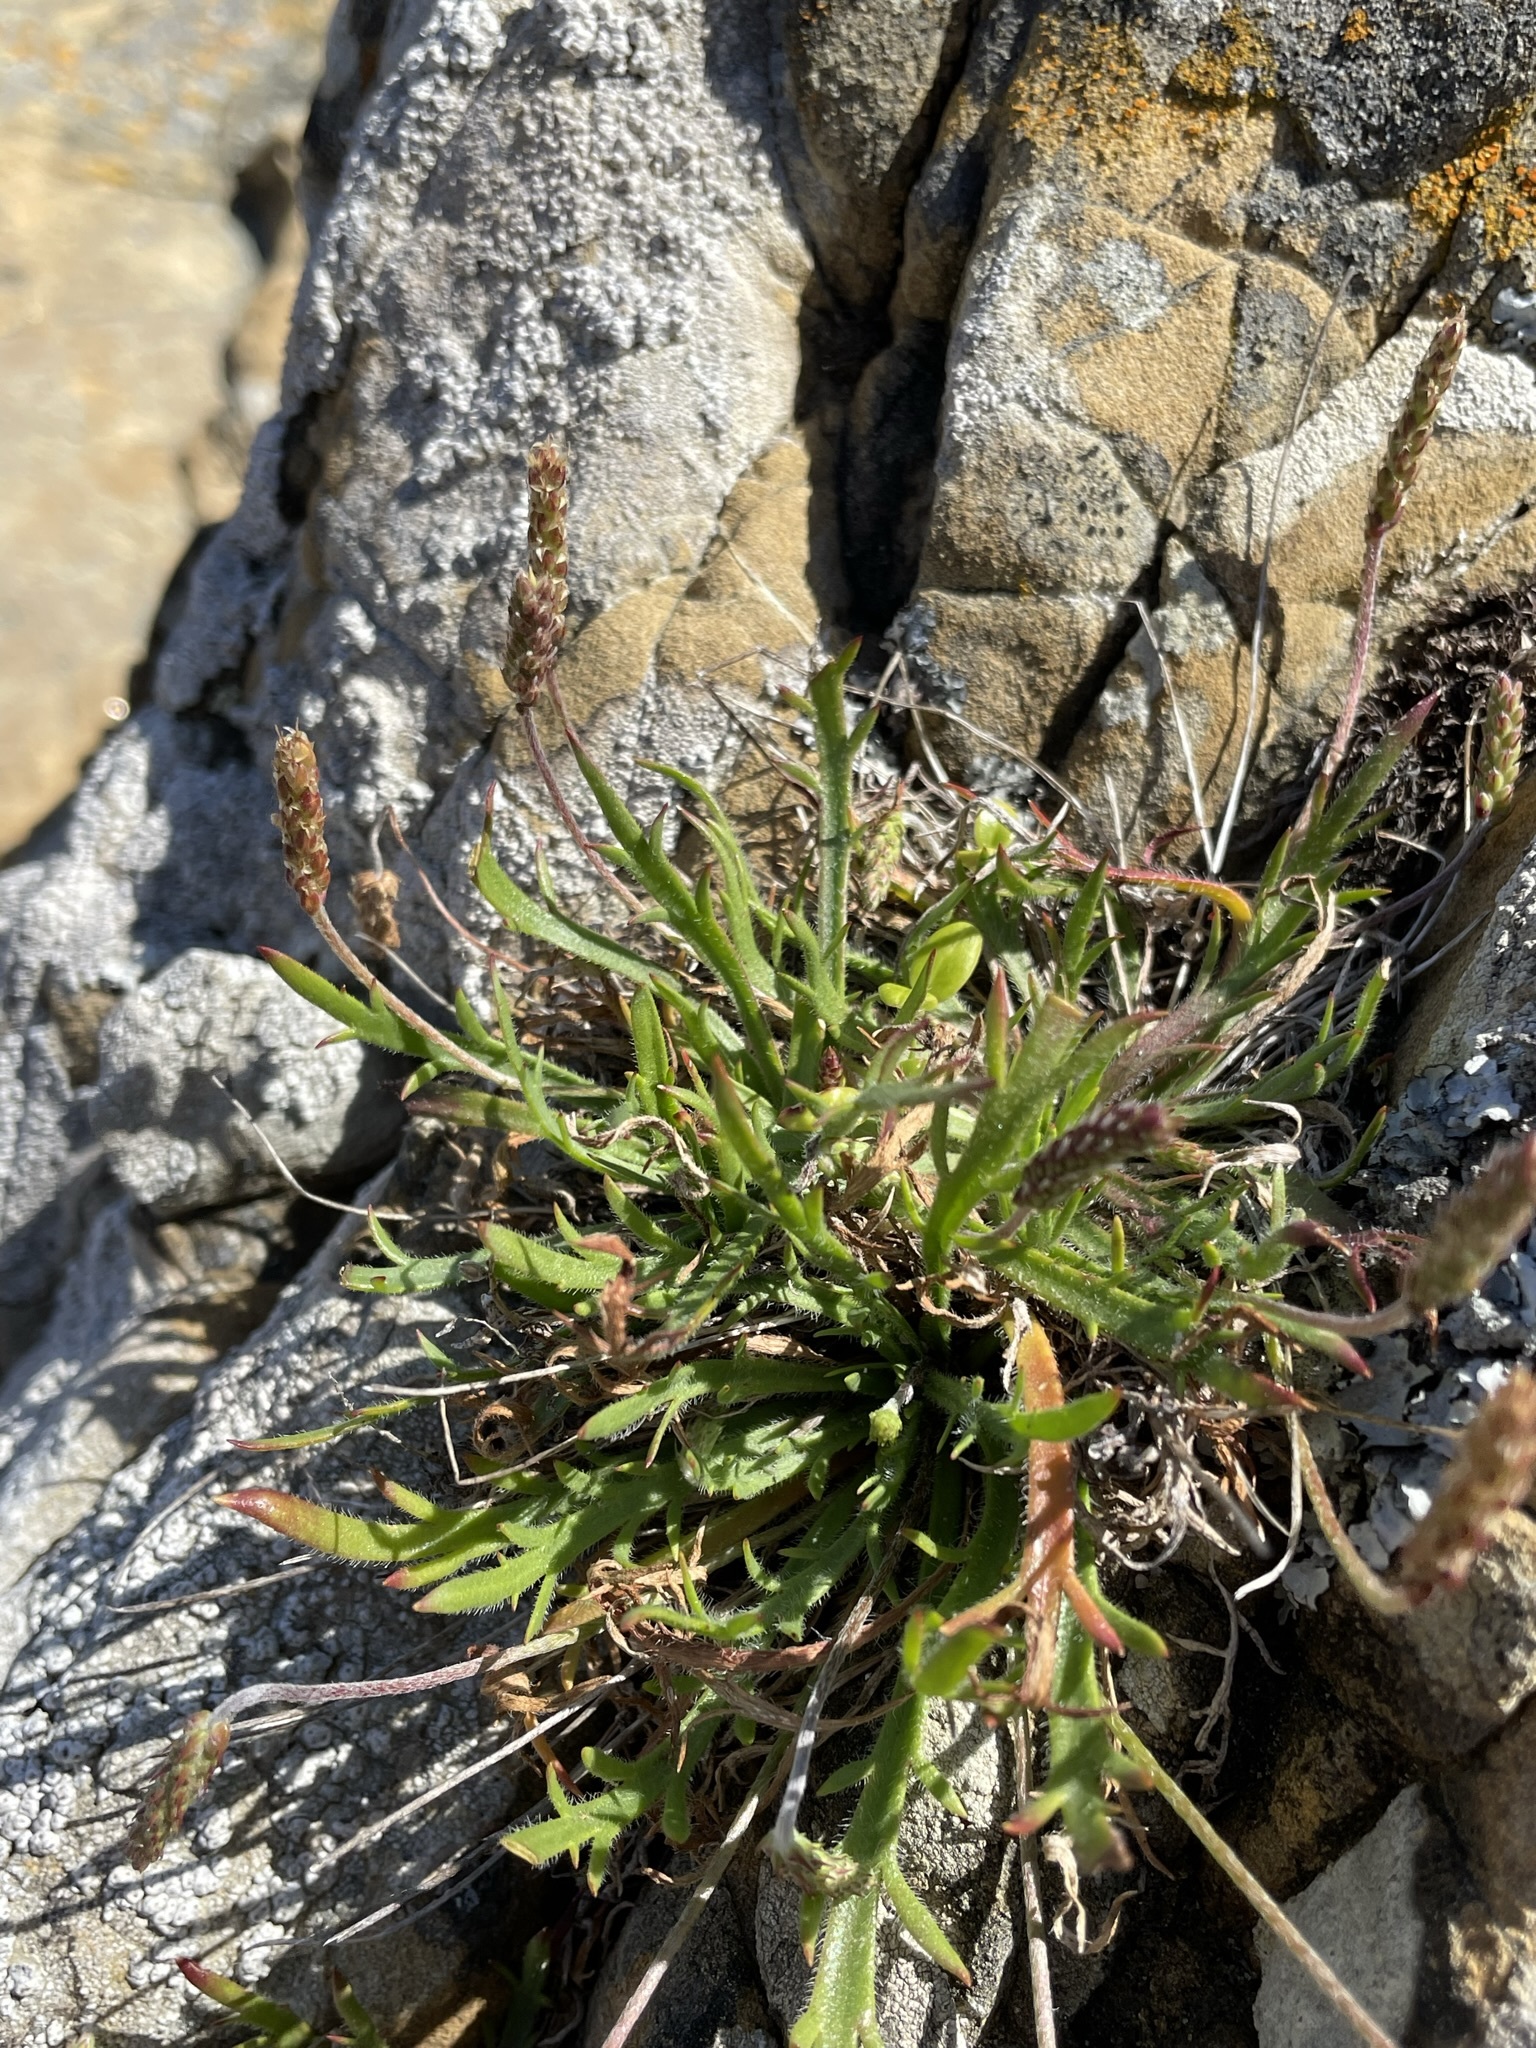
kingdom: Plantae
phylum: Tracheophyta
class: Magnoliopsida
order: Lamiales
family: Plantaginaceae
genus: Plantago
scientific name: Plantago coronopus
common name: Buck's-horn plantain
